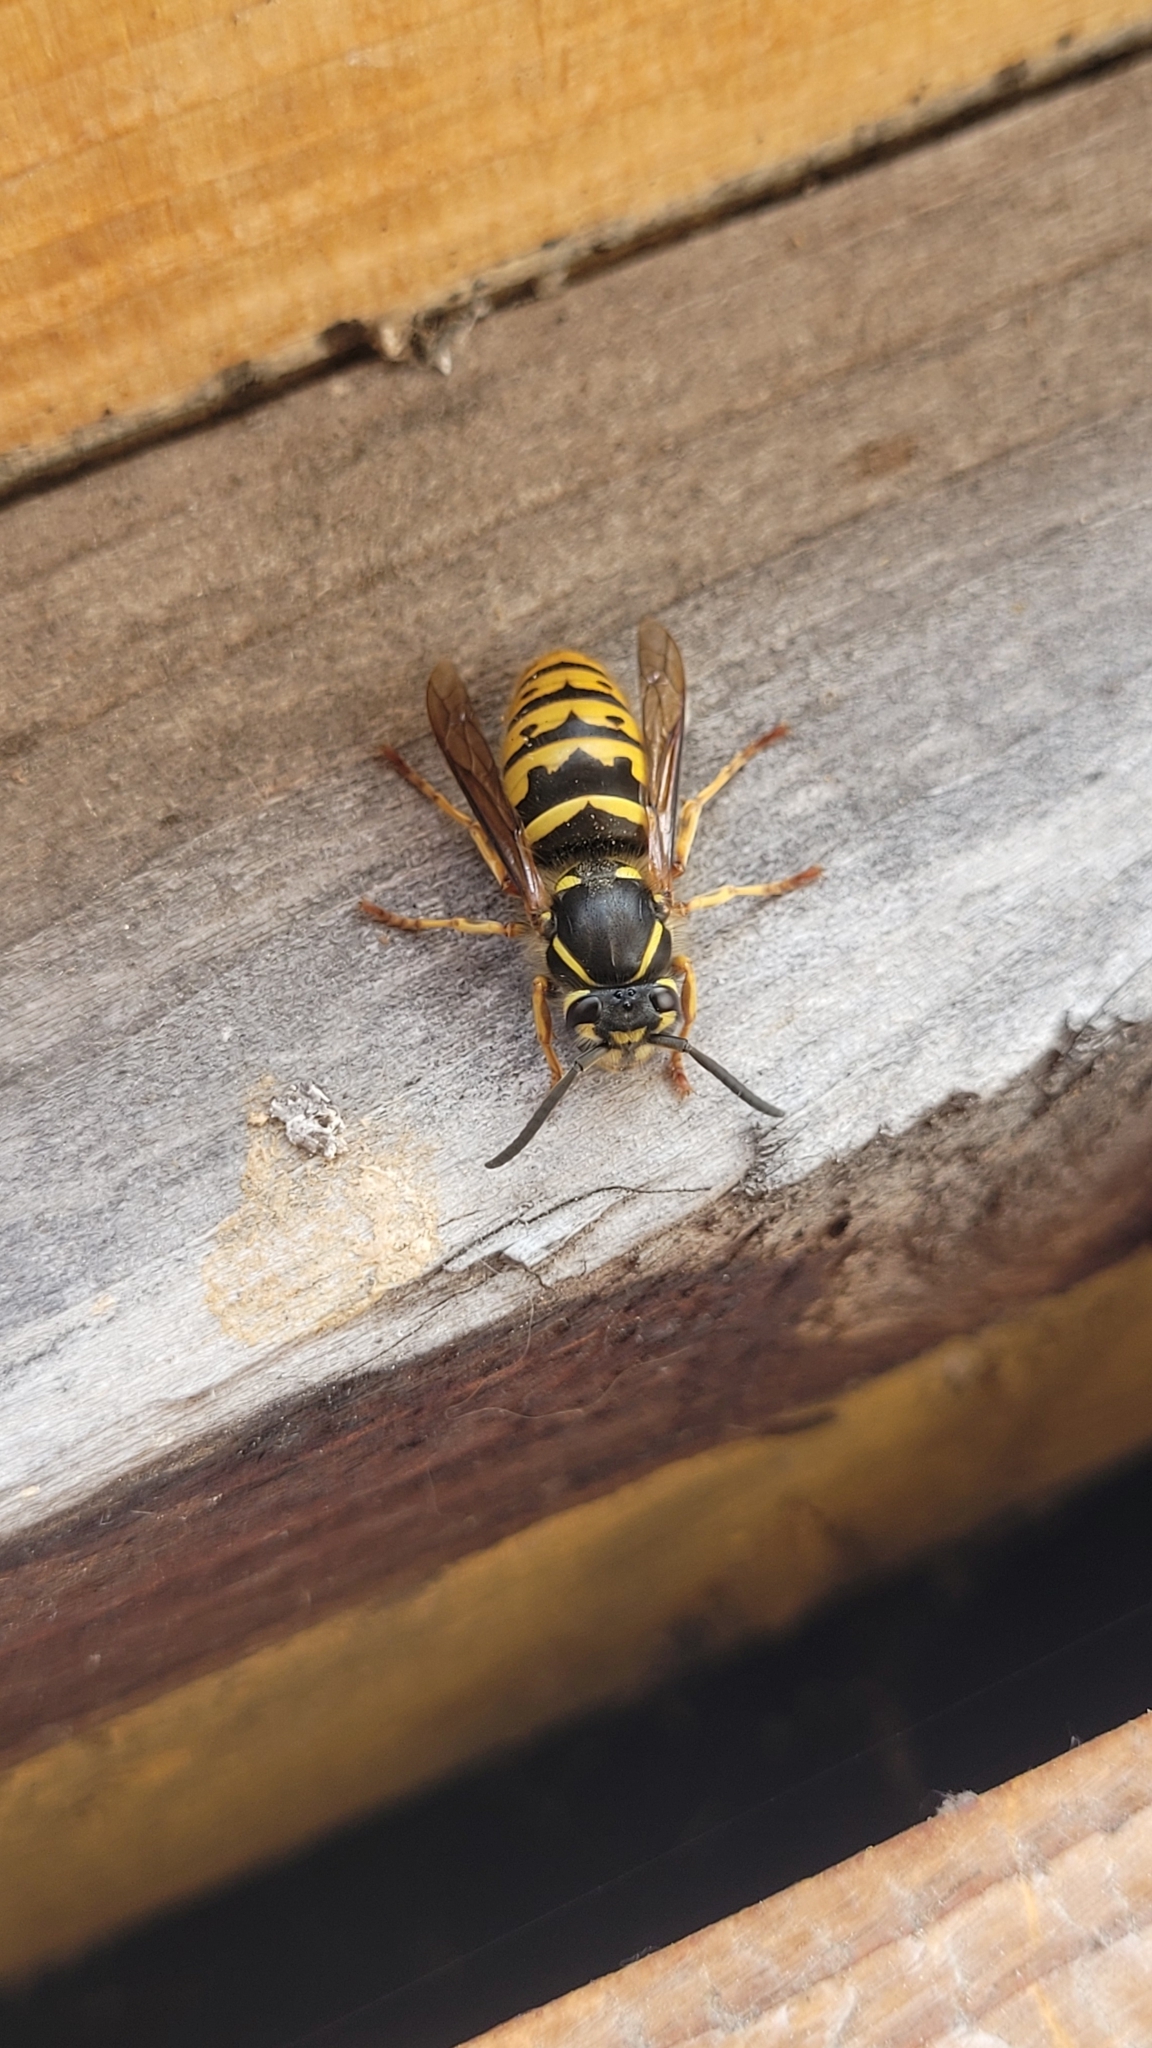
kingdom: Animalia
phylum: Arthropoda
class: Insecta
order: Hymenoptera
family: Vespidae
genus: Vespula
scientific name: Vespula vulgaris
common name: Common wasp
